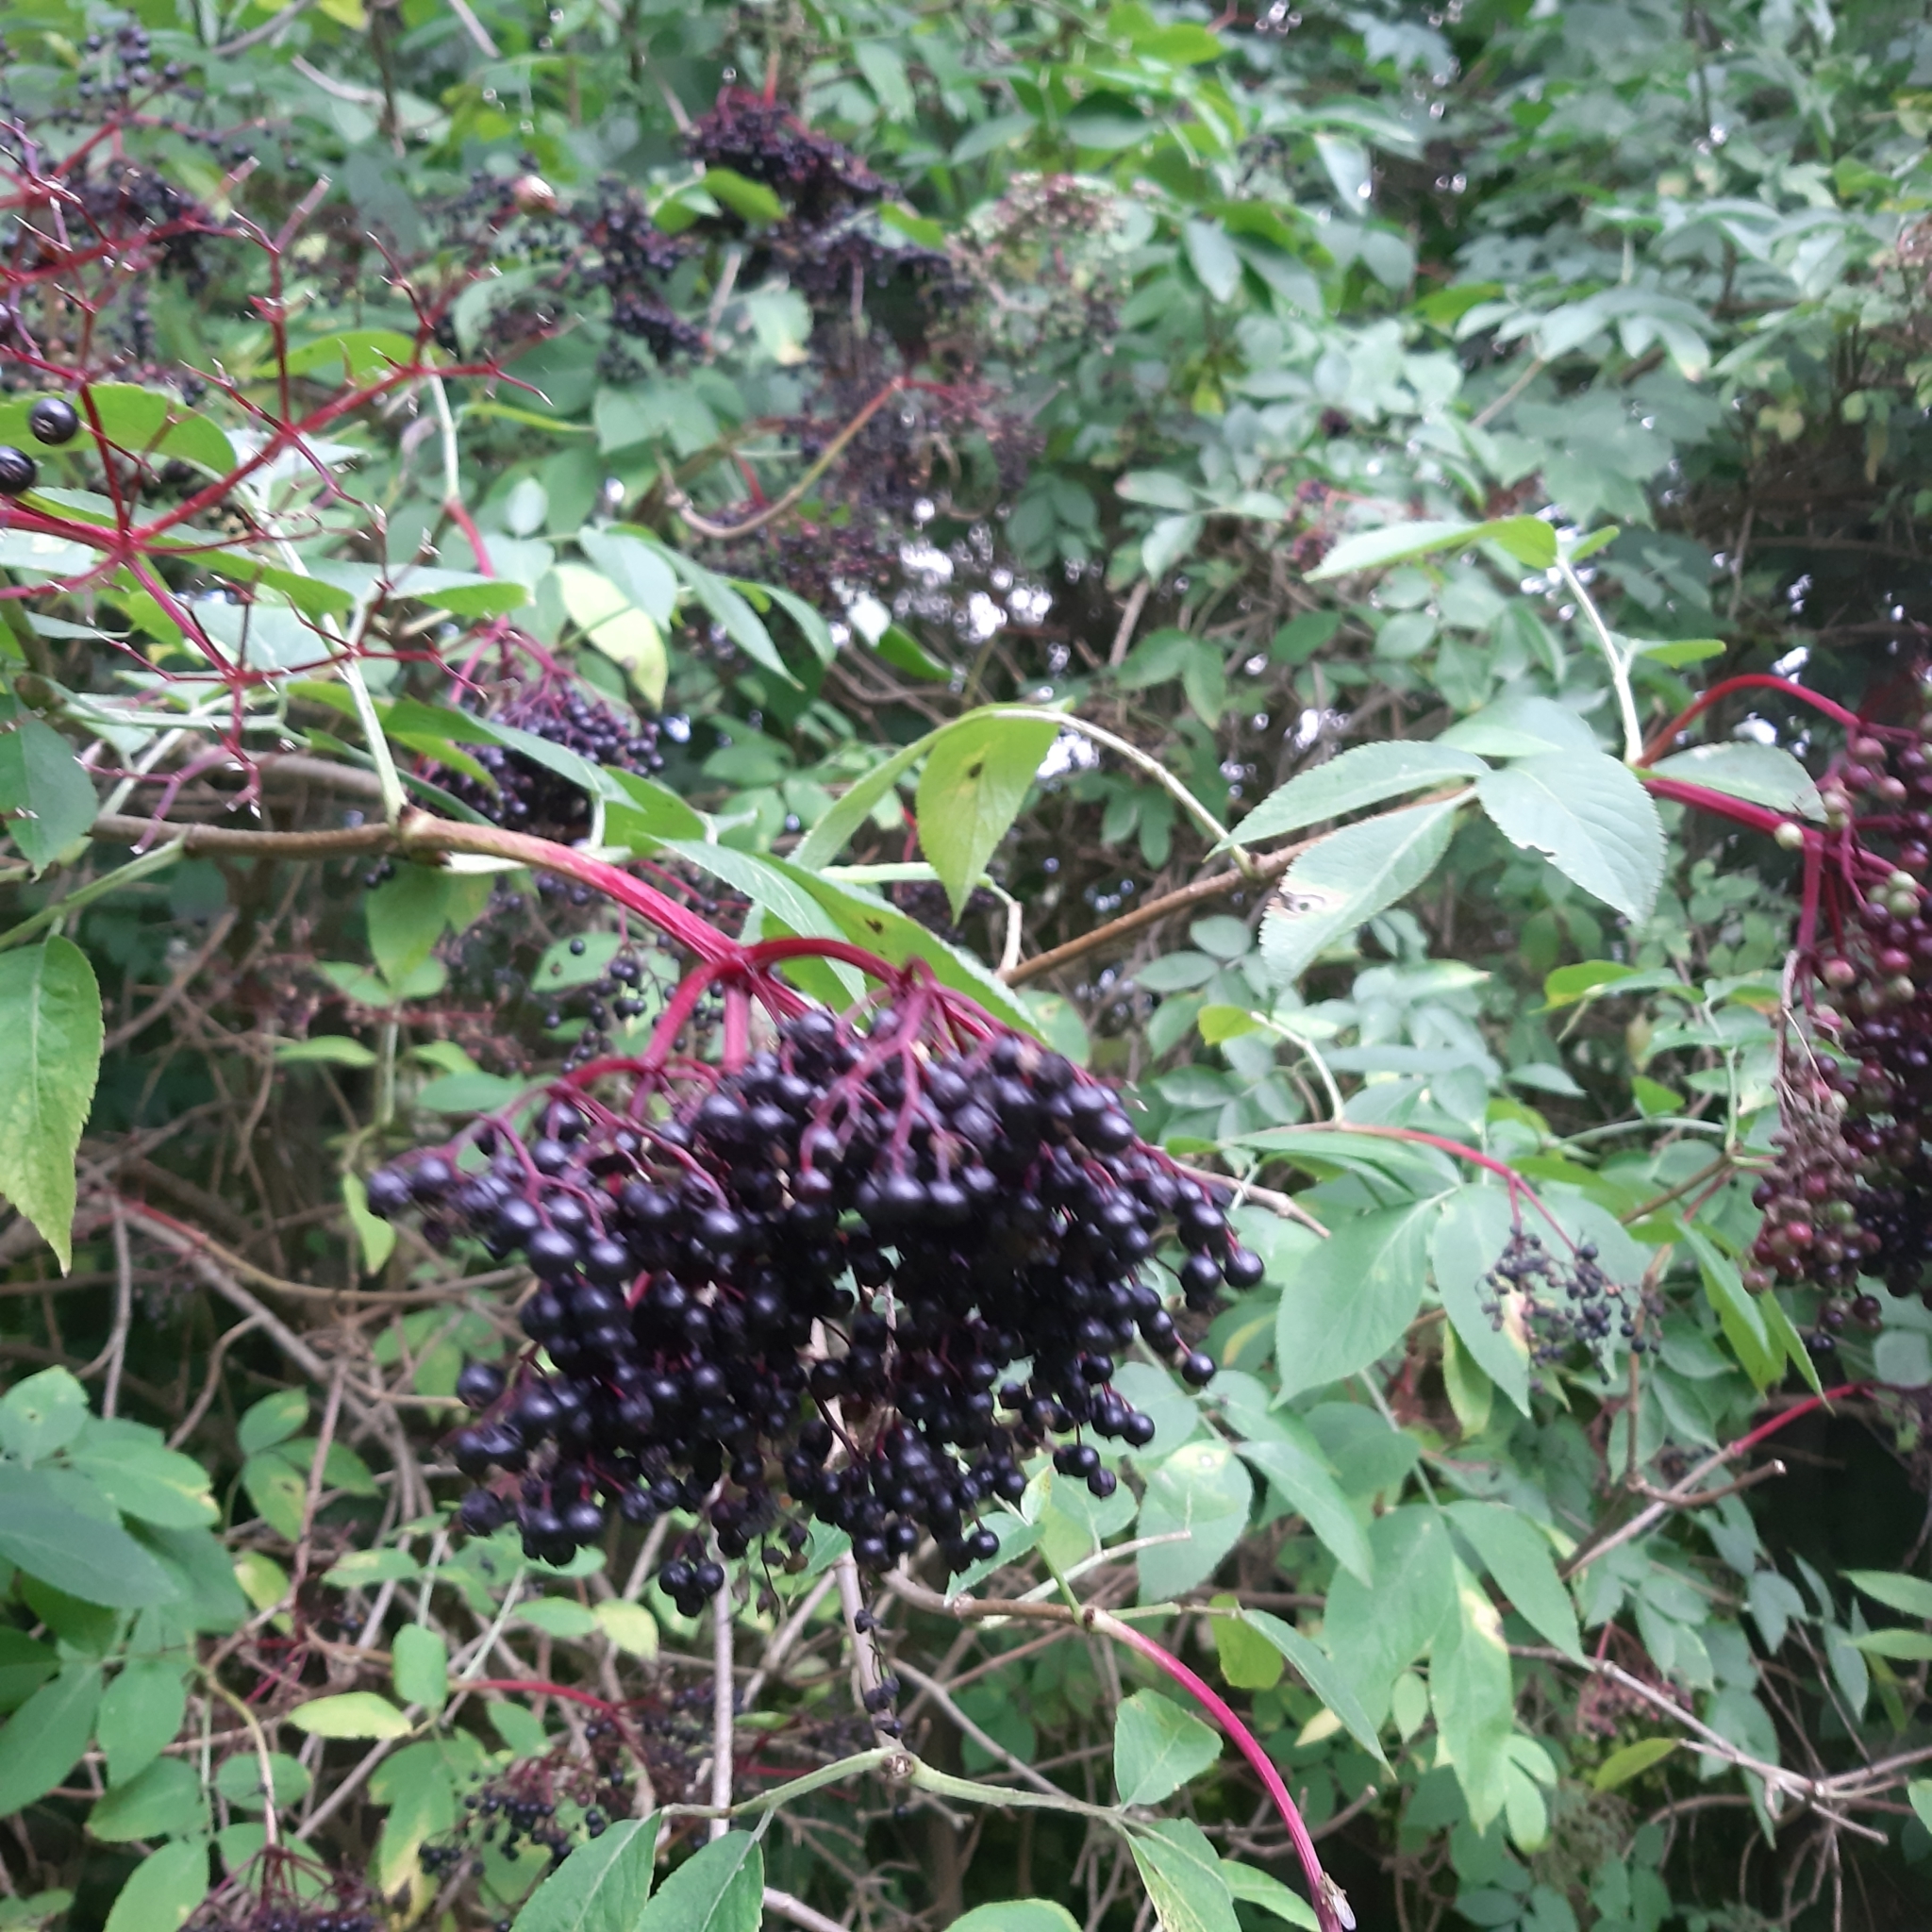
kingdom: Plantae
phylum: Tracheophyta
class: Magnoliopsida
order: Dipsacales
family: Viburnaceae
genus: Sambucus
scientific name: Sambucus nigra
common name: Elder
